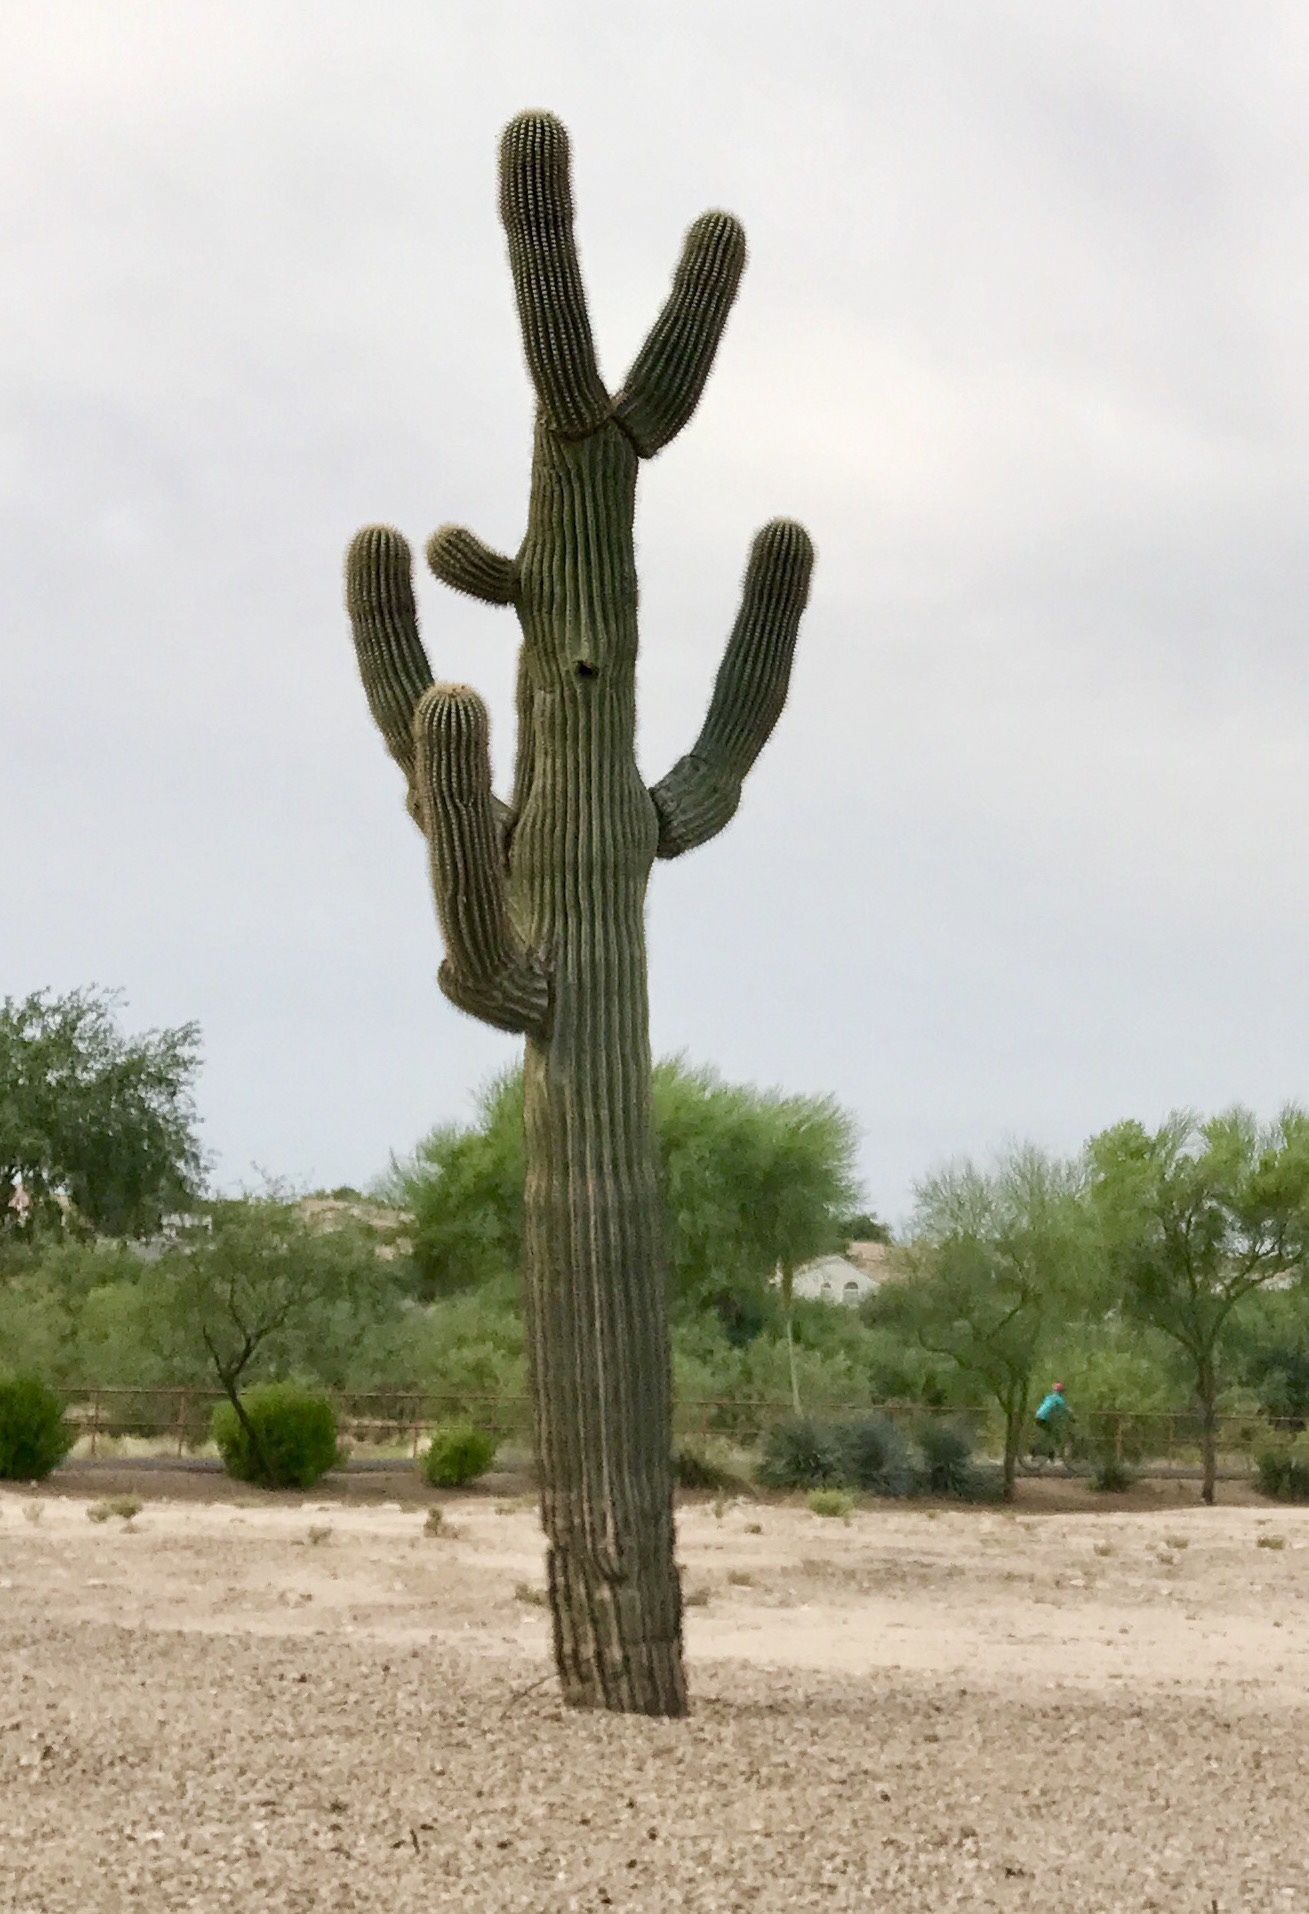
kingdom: Plantae
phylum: Tracheophyta
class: Magnoliopsida
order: Caryophyllales
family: Cactaceae
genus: Carnegiea
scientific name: Carnegiea gigantea
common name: Saguaro
